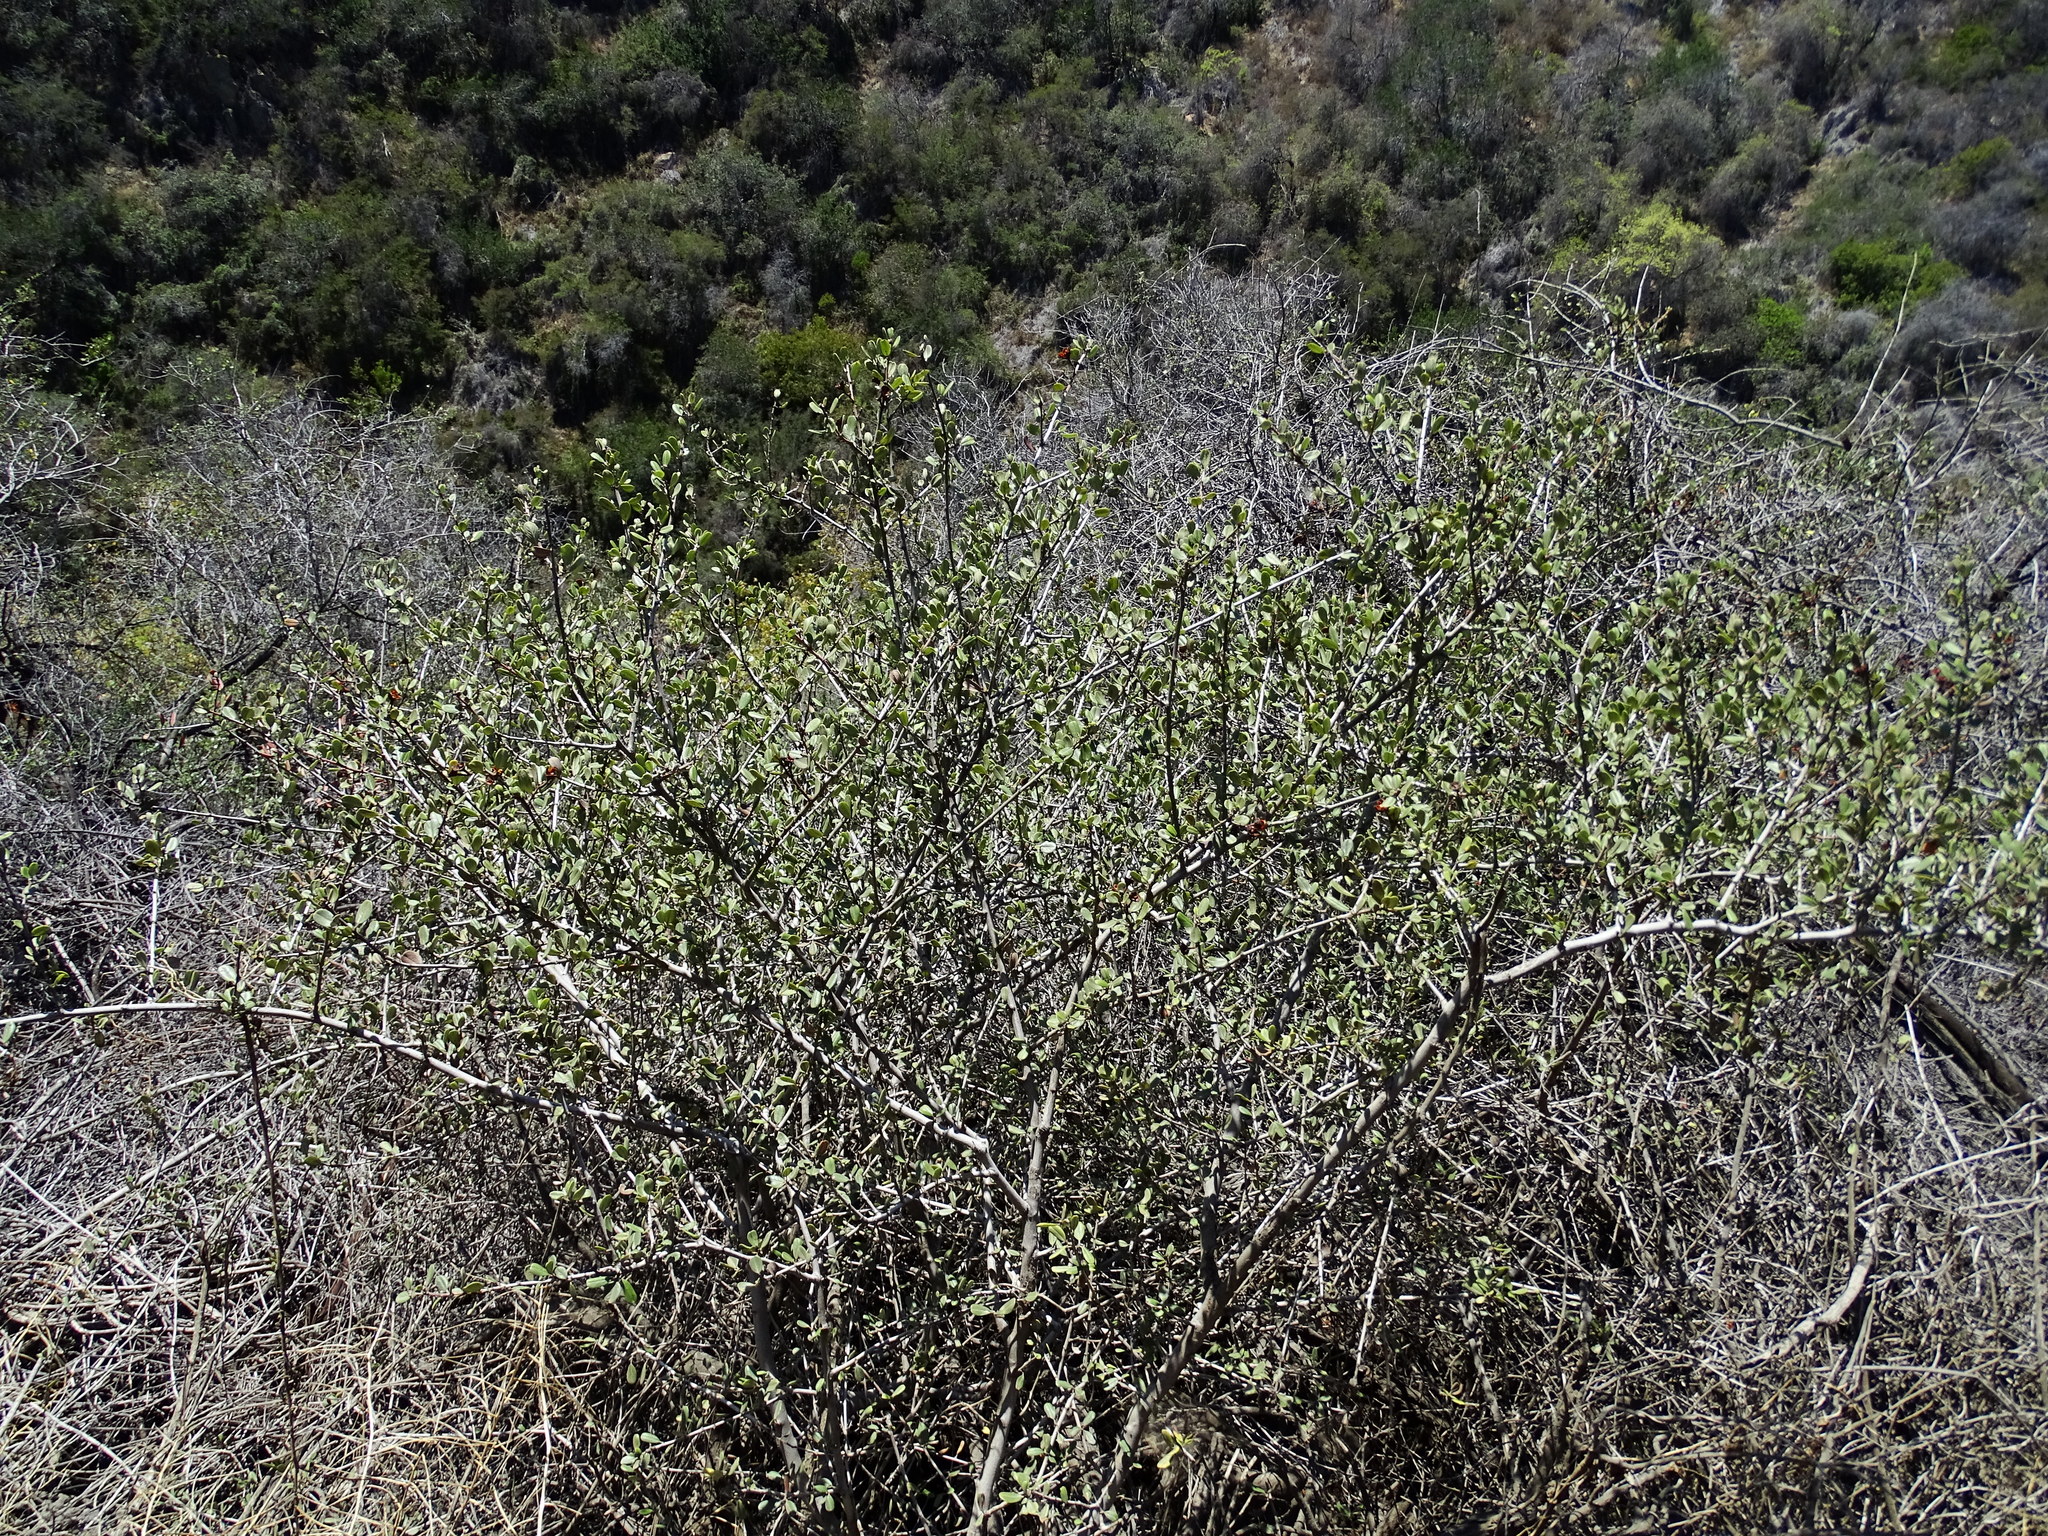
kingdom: Plantae
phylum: Tracheophyta
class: Magnoliopsida
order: Rosales
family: Rhamnaceae
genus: Ceanothus
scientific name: Ceanothus megacarpus
